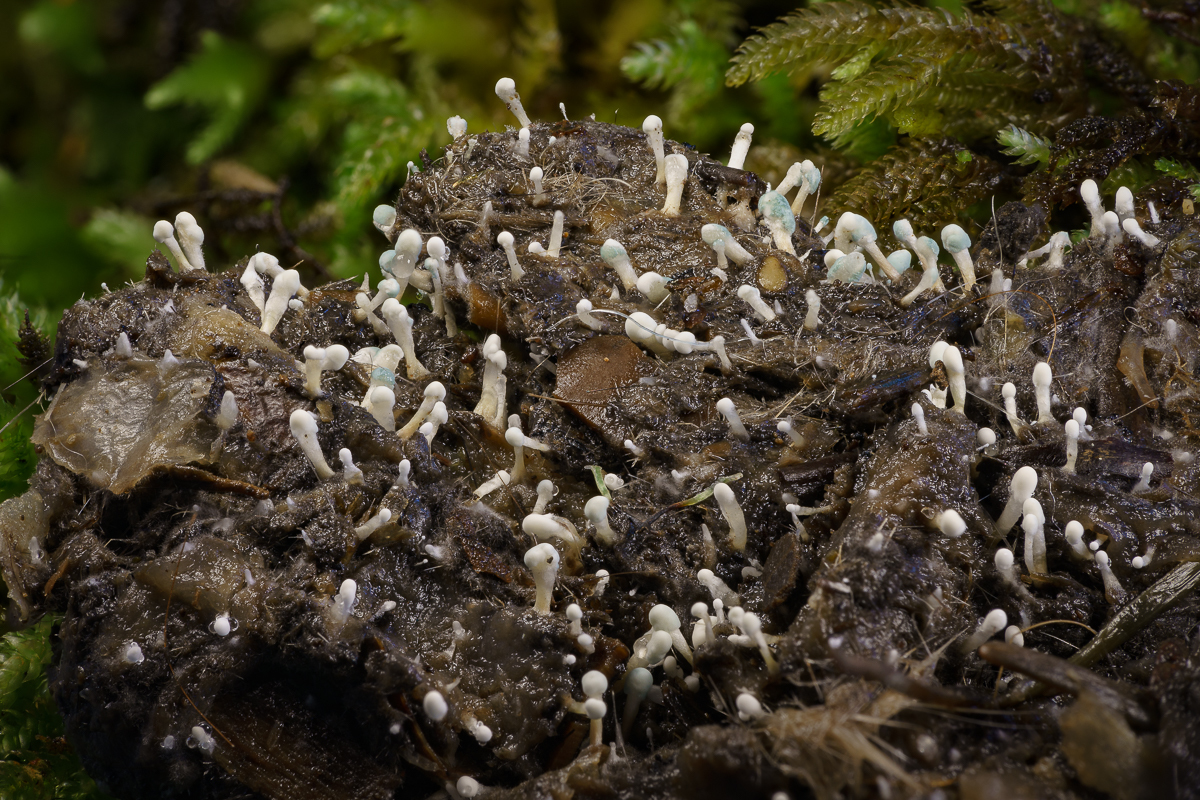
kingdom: Fungi
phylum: Ascomycota
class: Eurotiomycetes
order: Eurotiales
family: Aspergillaceae
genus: Penicillium
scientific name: Penicillium vulpinum
